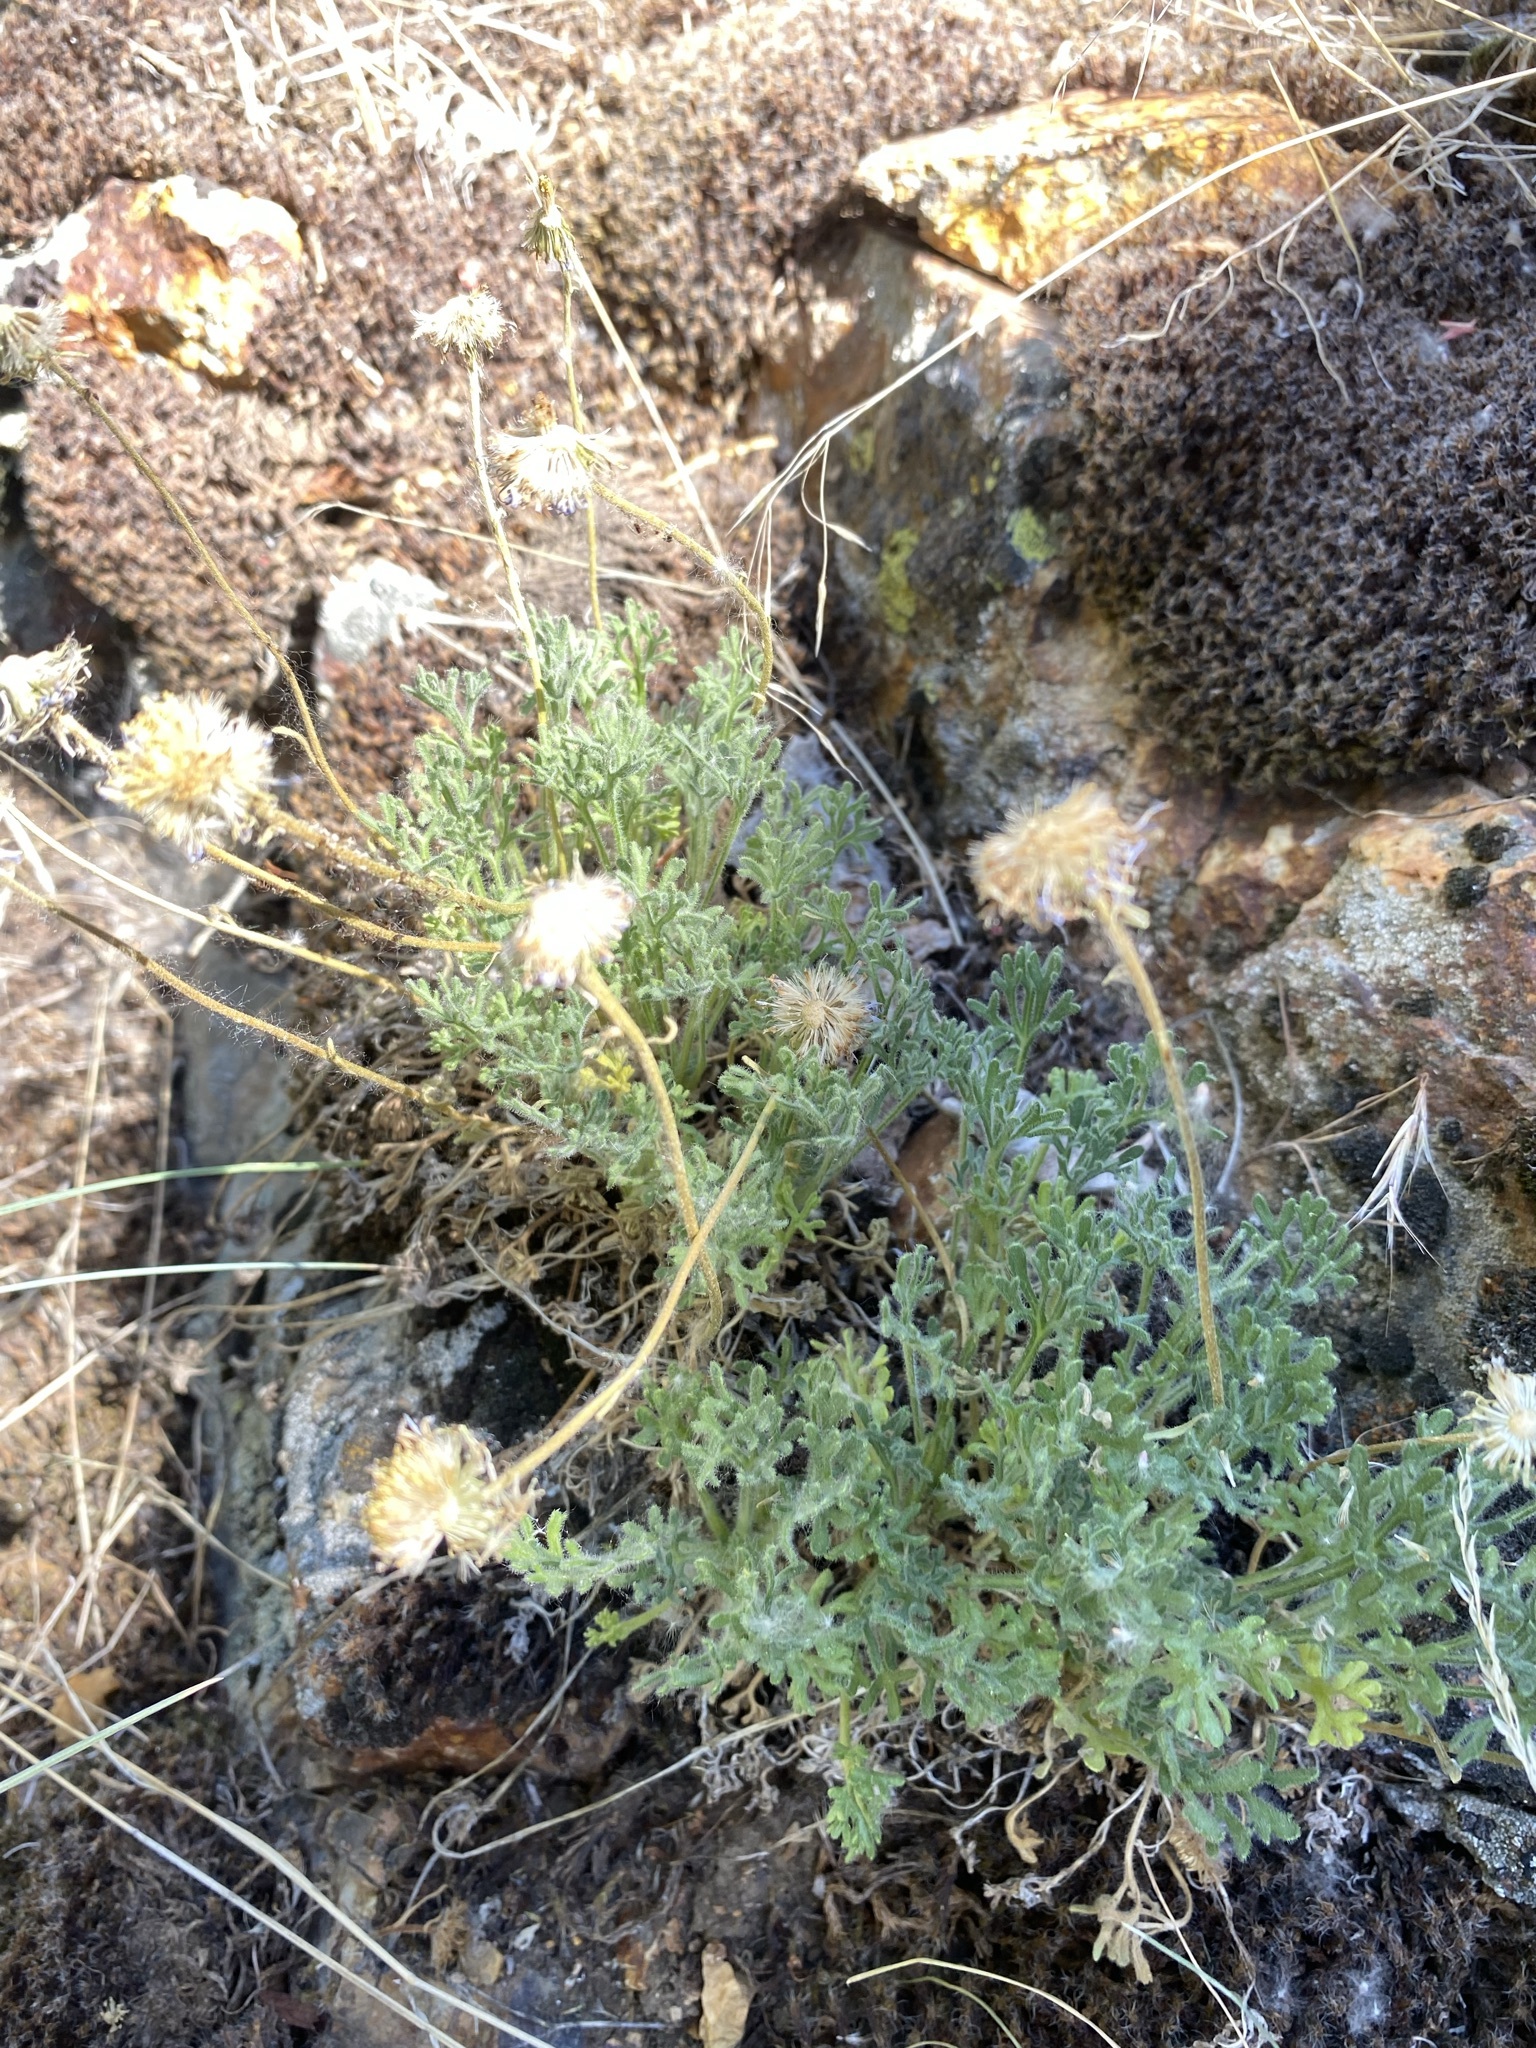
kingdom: Plantae
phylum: Tracheophyta
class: Magnoliopsida
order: Asterales
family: Asteraceae
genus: Erigeron
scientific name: Erigeron compositus
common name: Dwarf mountain fleabane
